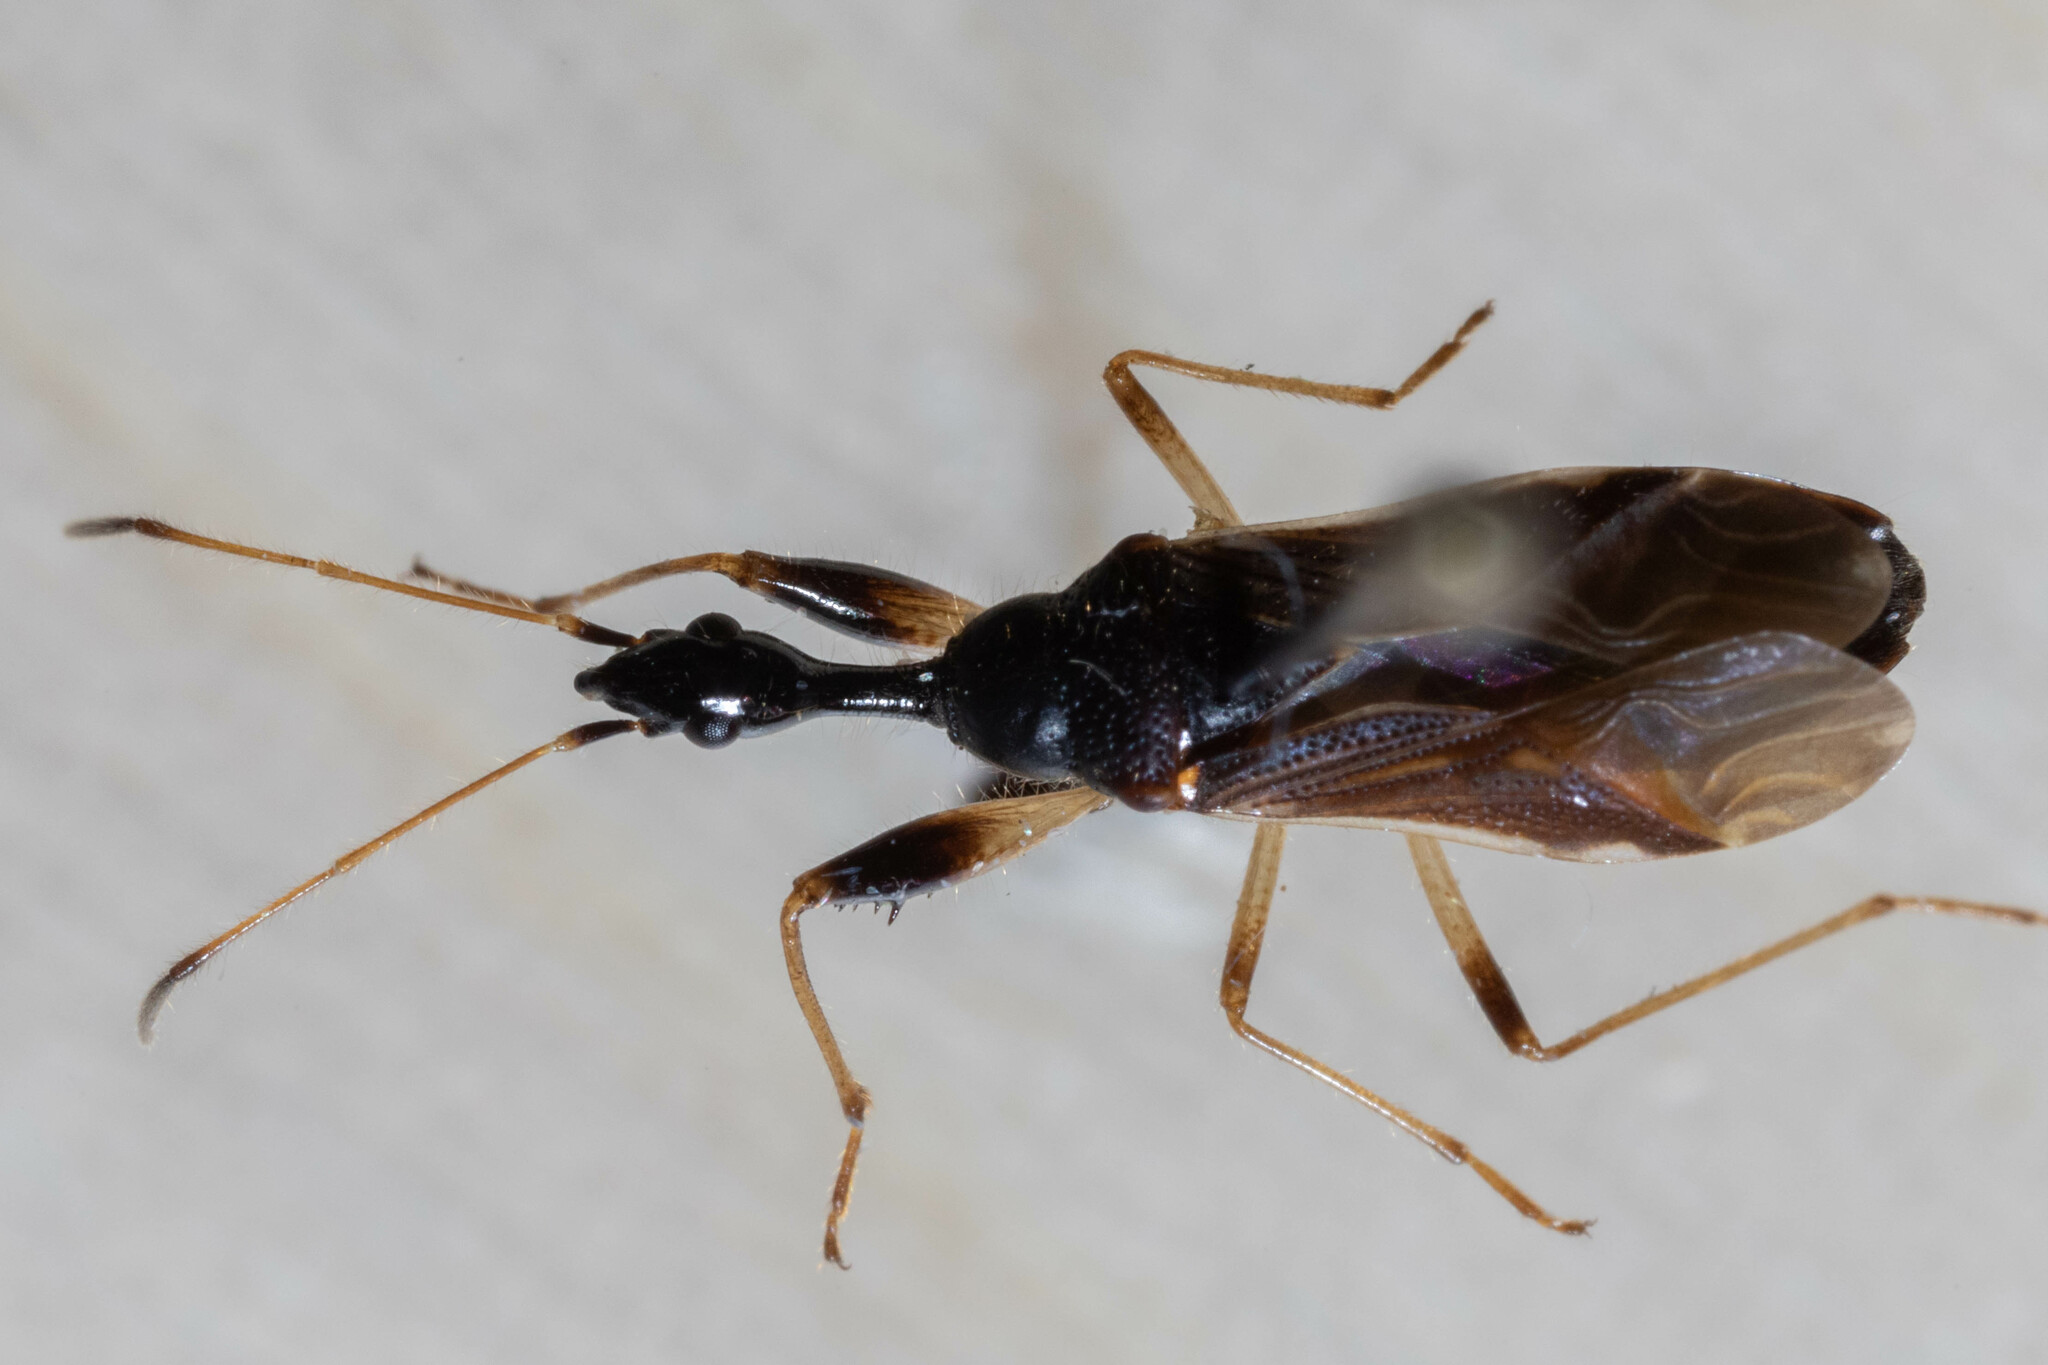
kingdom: Animalia
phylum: Arthropoda
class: Insecta
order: Hemiptera
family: Rhyparochromidae
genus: Myodocha
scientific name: Myodocha serripes
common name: Long-necked seed bug
